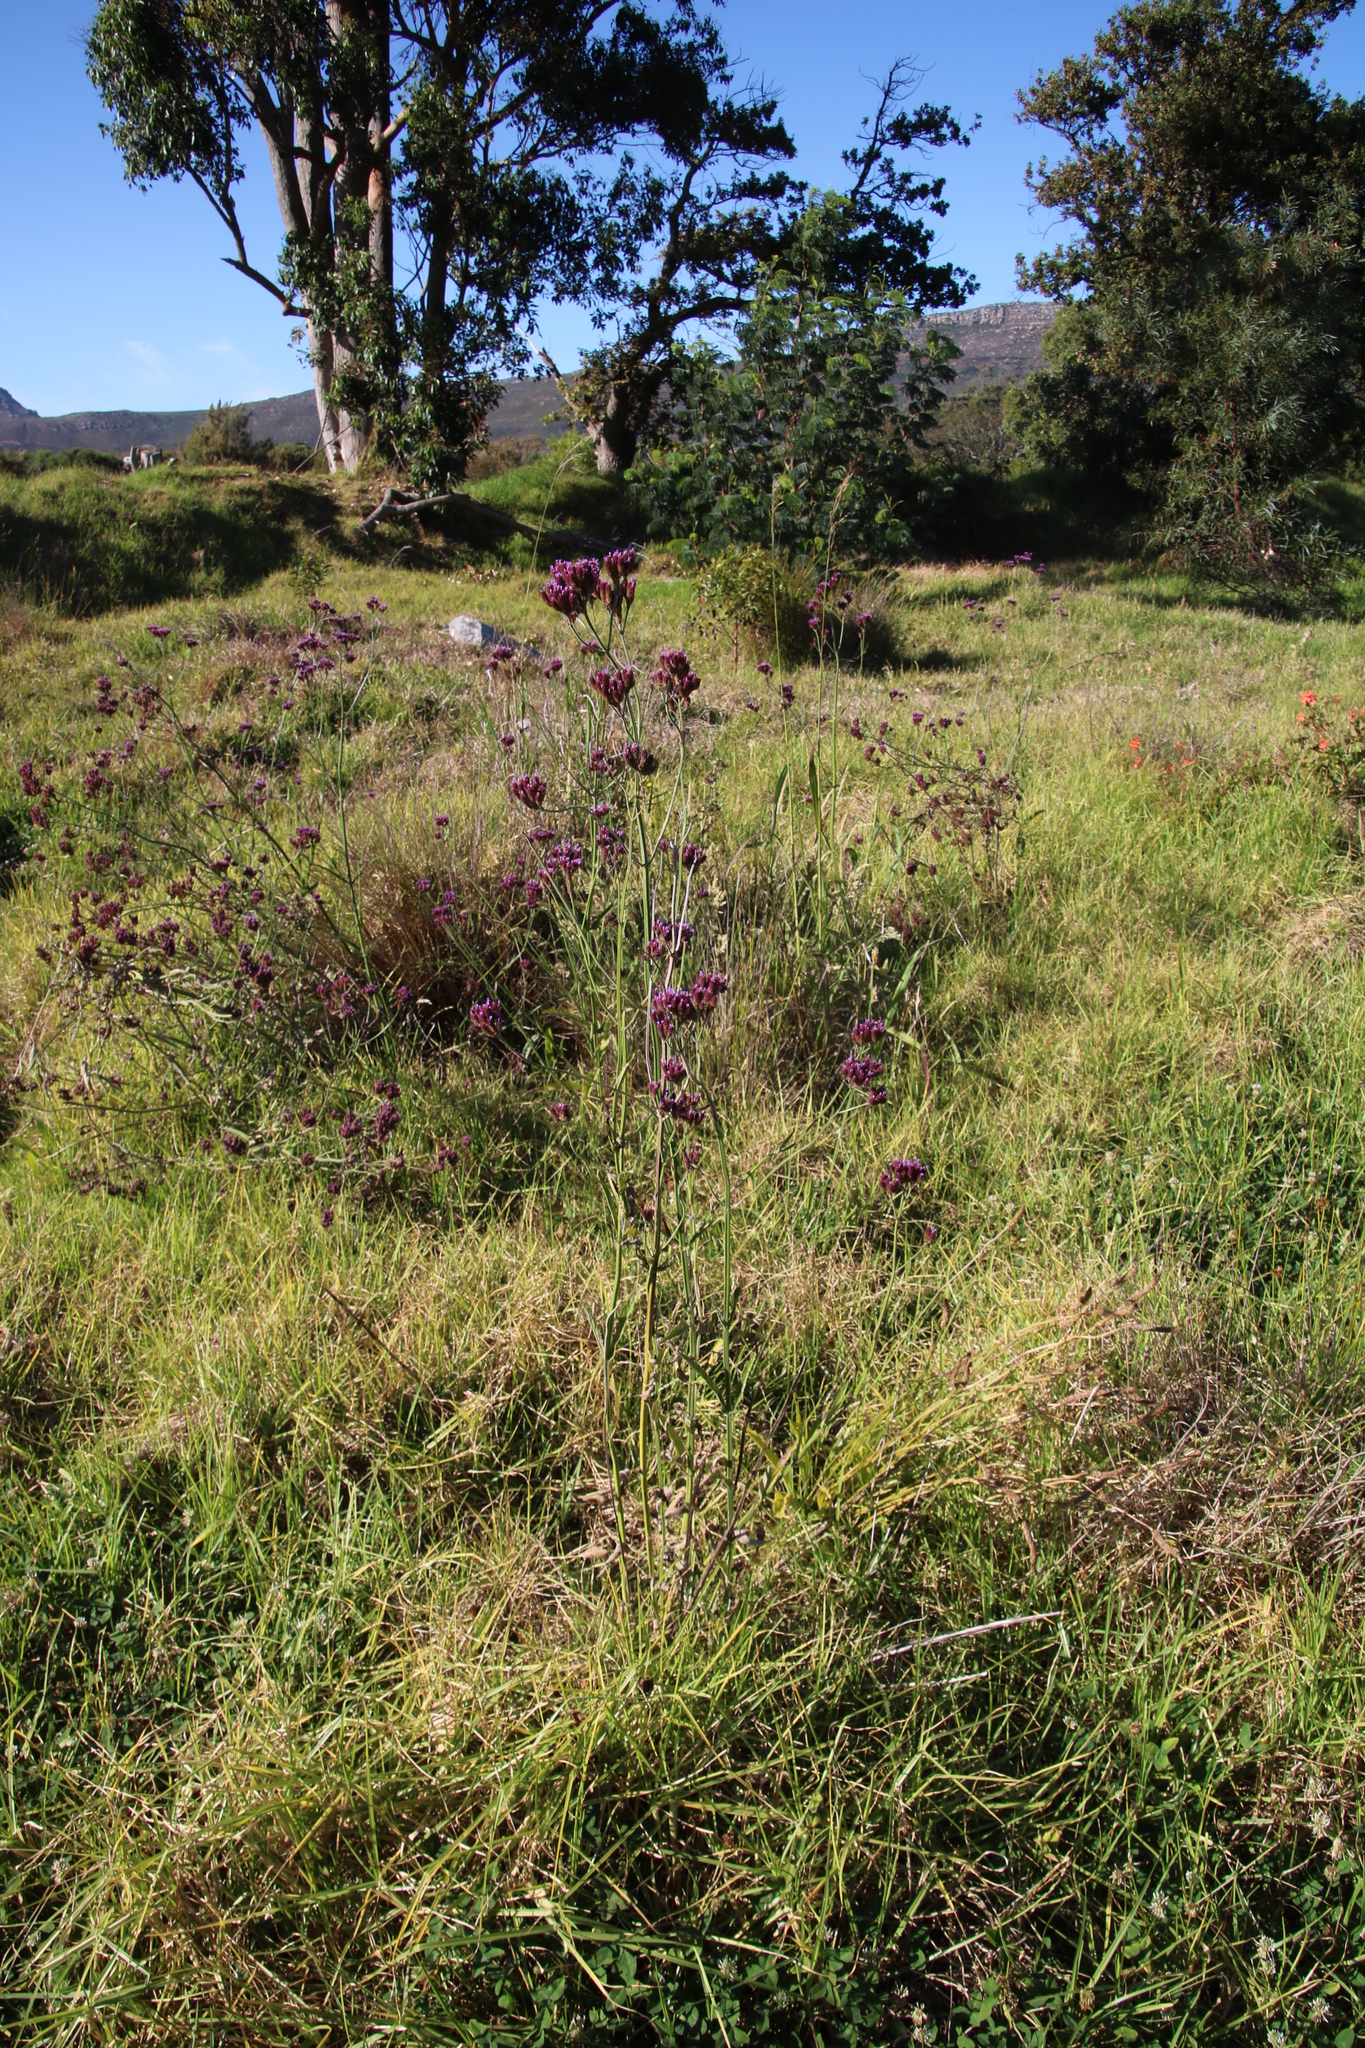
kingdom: Plantae
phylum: Tracheophyta
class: Magnoliopsida
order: Lamiales
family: Verbenaceae
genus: Verbena
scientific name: Verbena bonariensis
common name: Purpletop vervain
